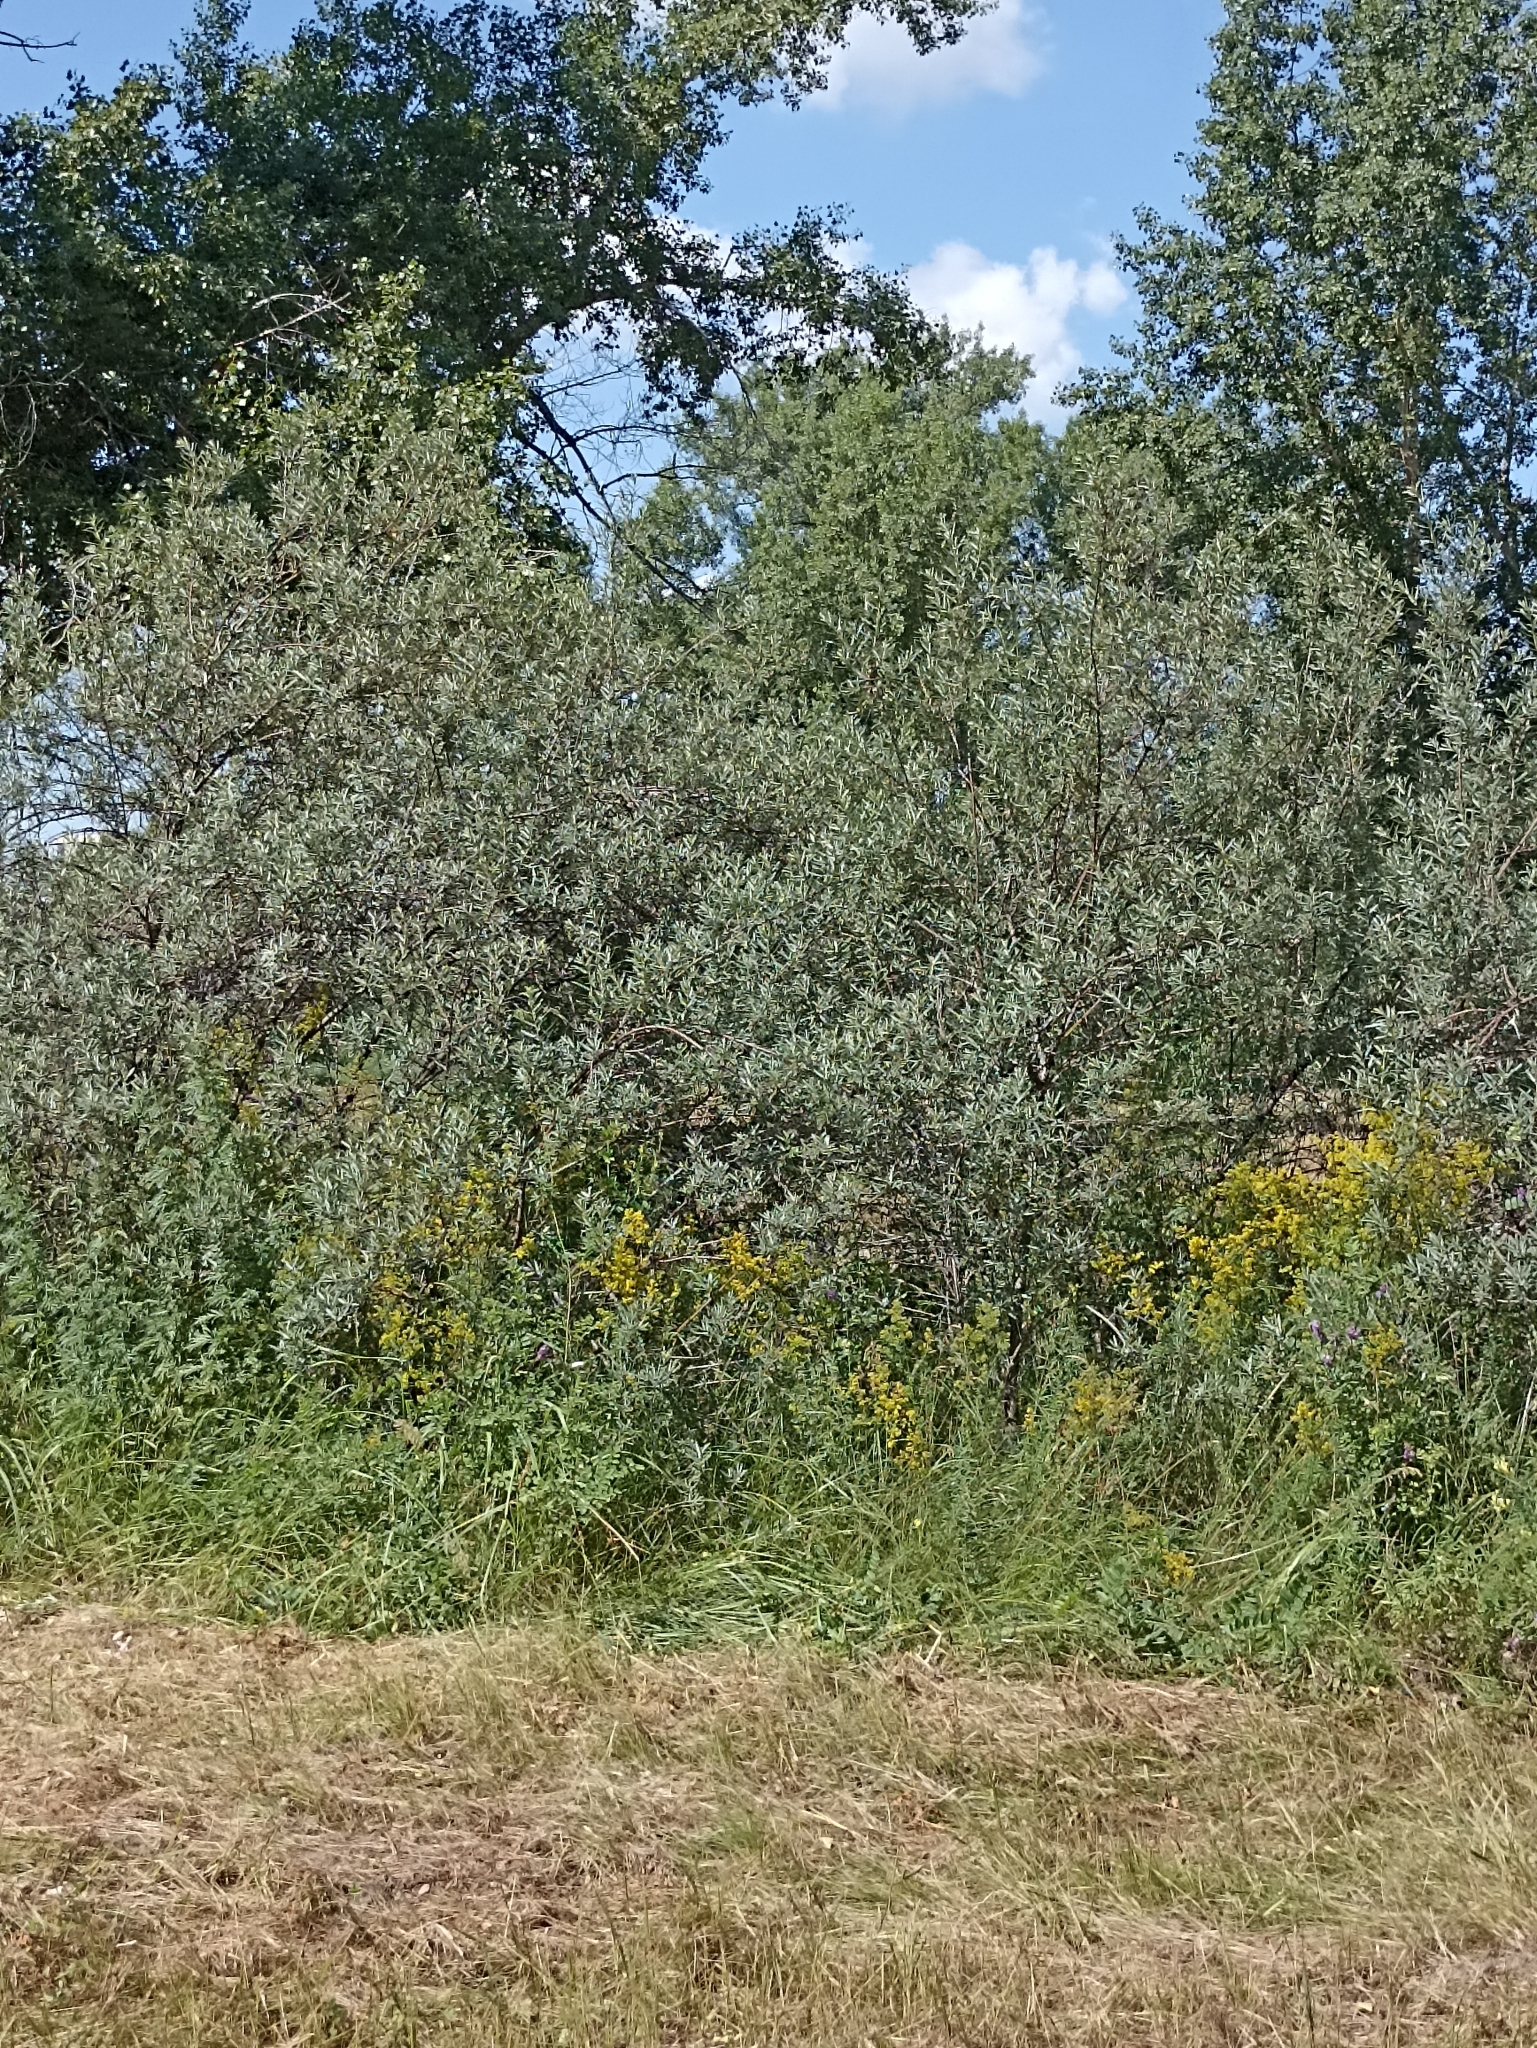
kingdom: Plantae
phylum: Tracheophyta
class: Magnoliopsida
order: Rosales
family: Elaeagnaceae
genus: Hippophae
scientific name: Hippophae rhamnoides
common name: Sea-buckthorn
